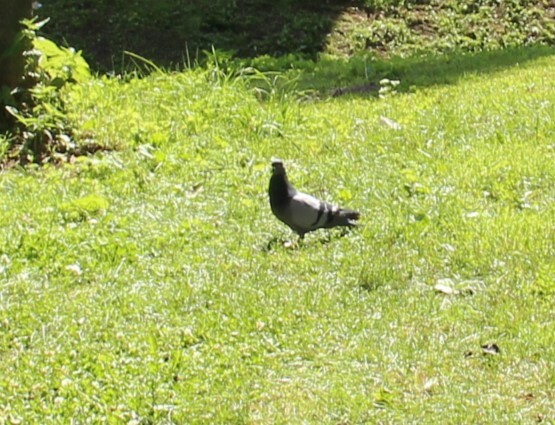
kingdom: Animalia
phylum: Chordata
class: Aves
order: Columbiformes
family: Columbidae
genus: Columba
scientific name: Columba livia
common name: Rock pigeon
